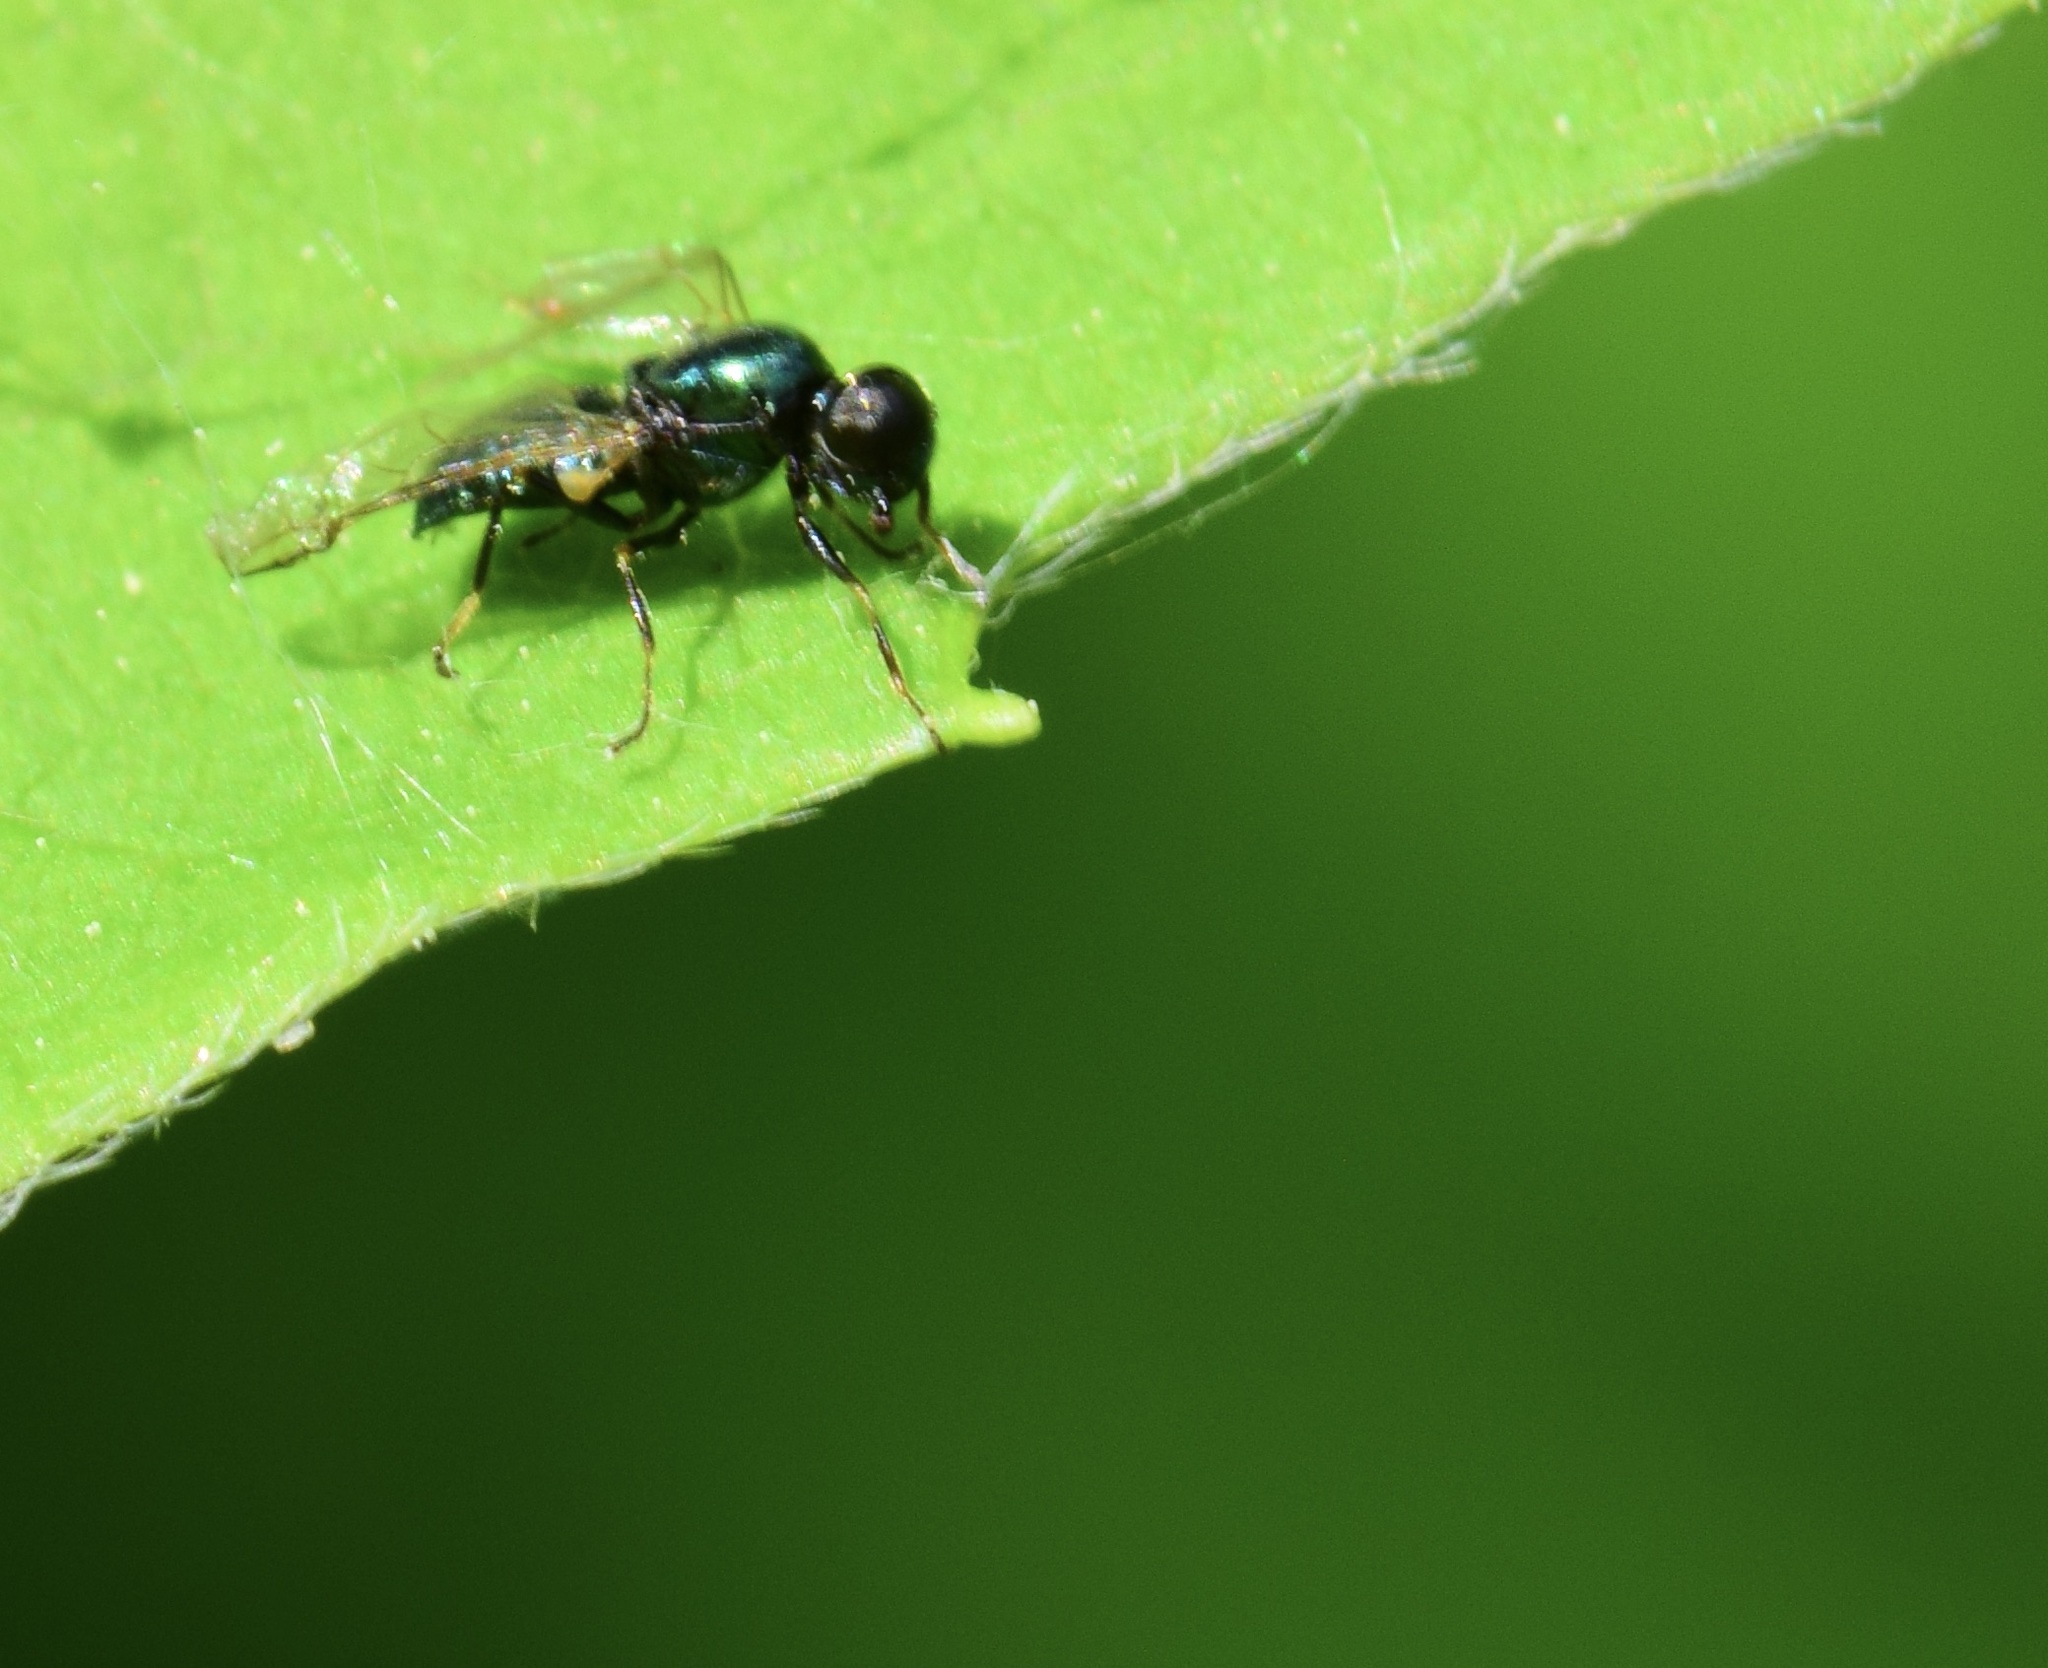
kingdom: Animalia
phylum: Arthropoda
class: Insecta
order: Diptera
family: Stratiomyidae
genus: Microchrysa
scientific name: Microchrysa polita
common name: Black-horned gem
